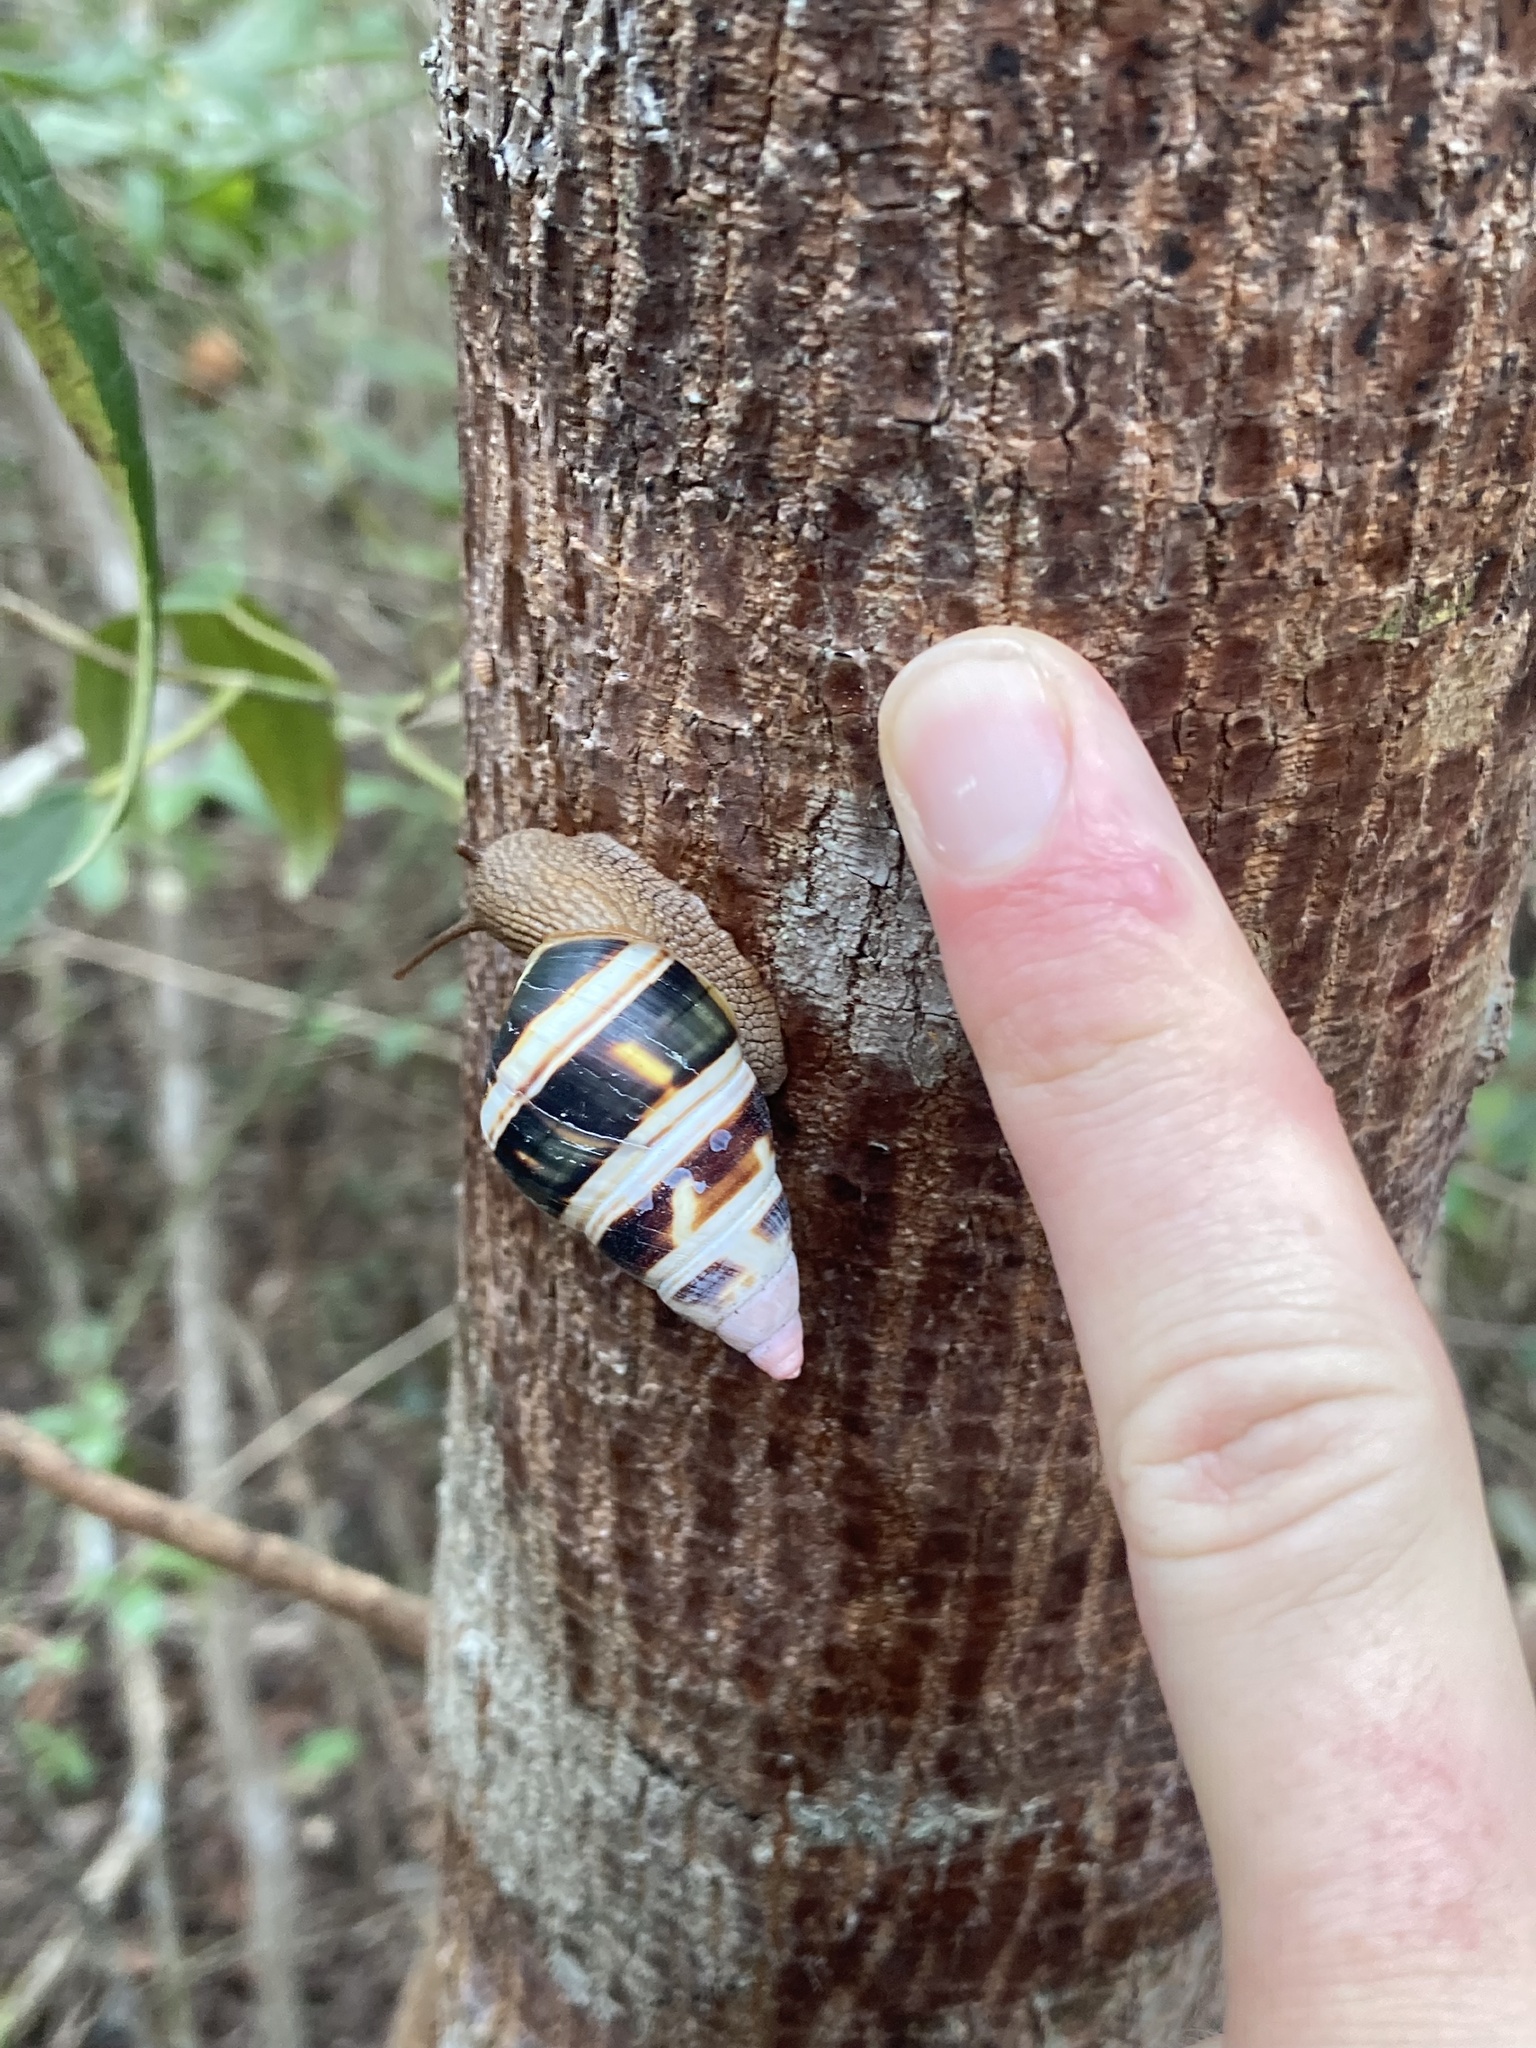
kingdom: Animalia
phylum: Mollusca
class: Gastropoda
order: Stylommatophora
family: Orthalicidae
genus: Liguus
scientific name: Liguus fasciatus
